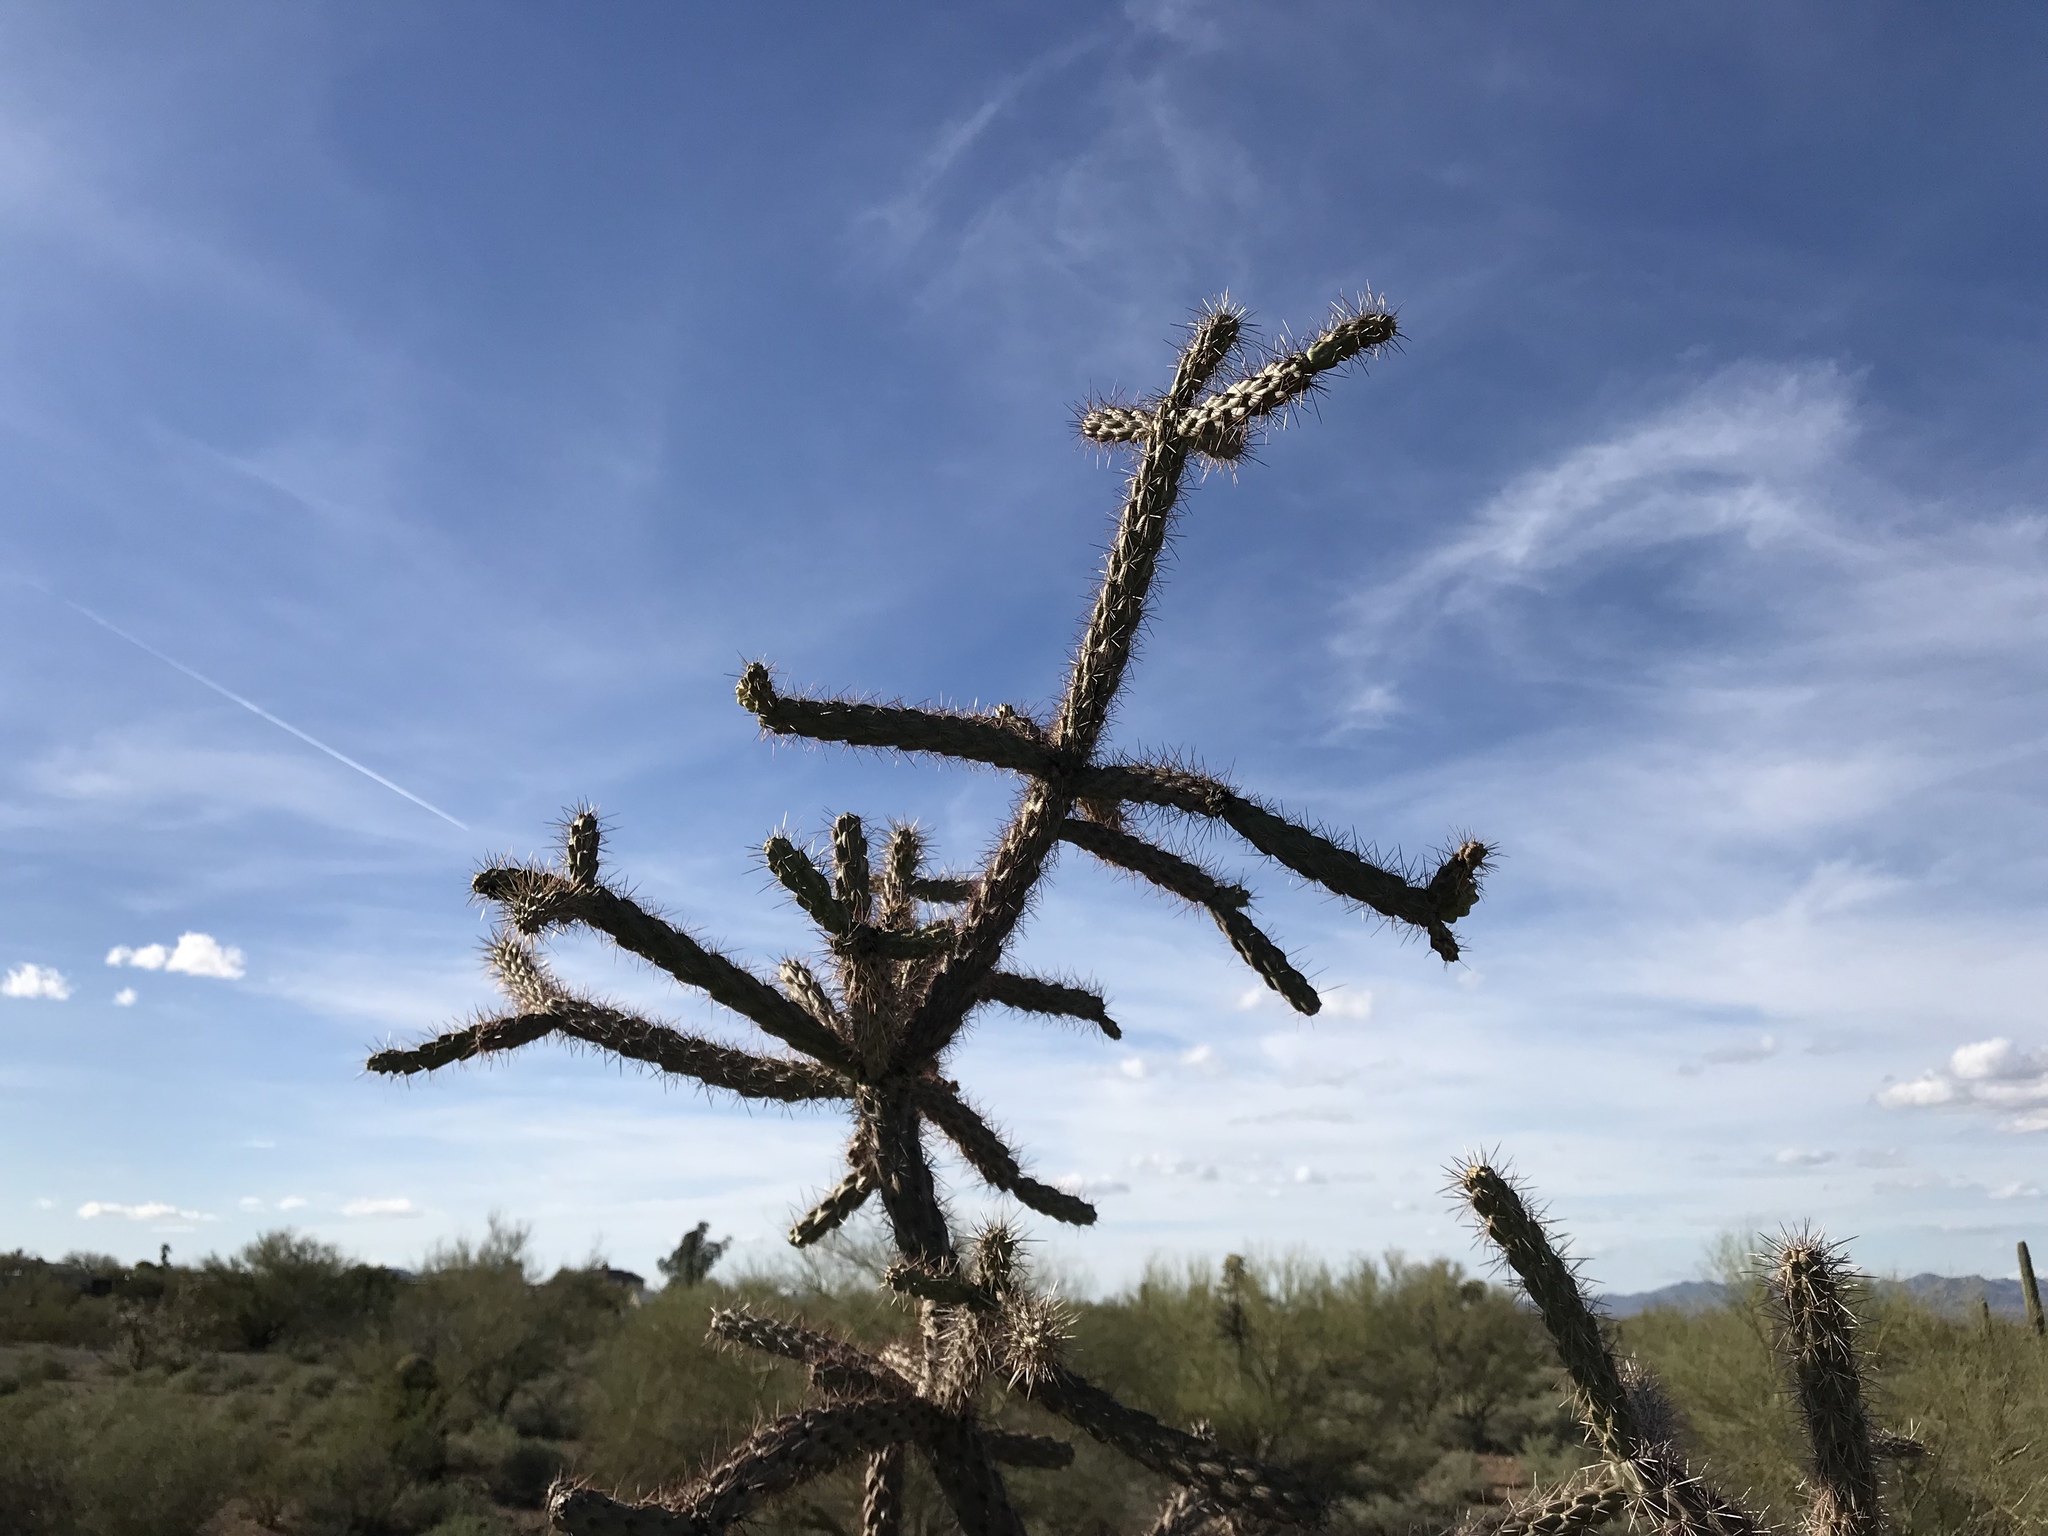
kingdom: Plantae
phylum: Tracheophyta
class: Magnoliopsida
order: Caryophyllales
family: Cactaceae
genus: Cylindropuntia
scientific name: Cylindropuntia imbricata
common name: Candelabrum cactus
